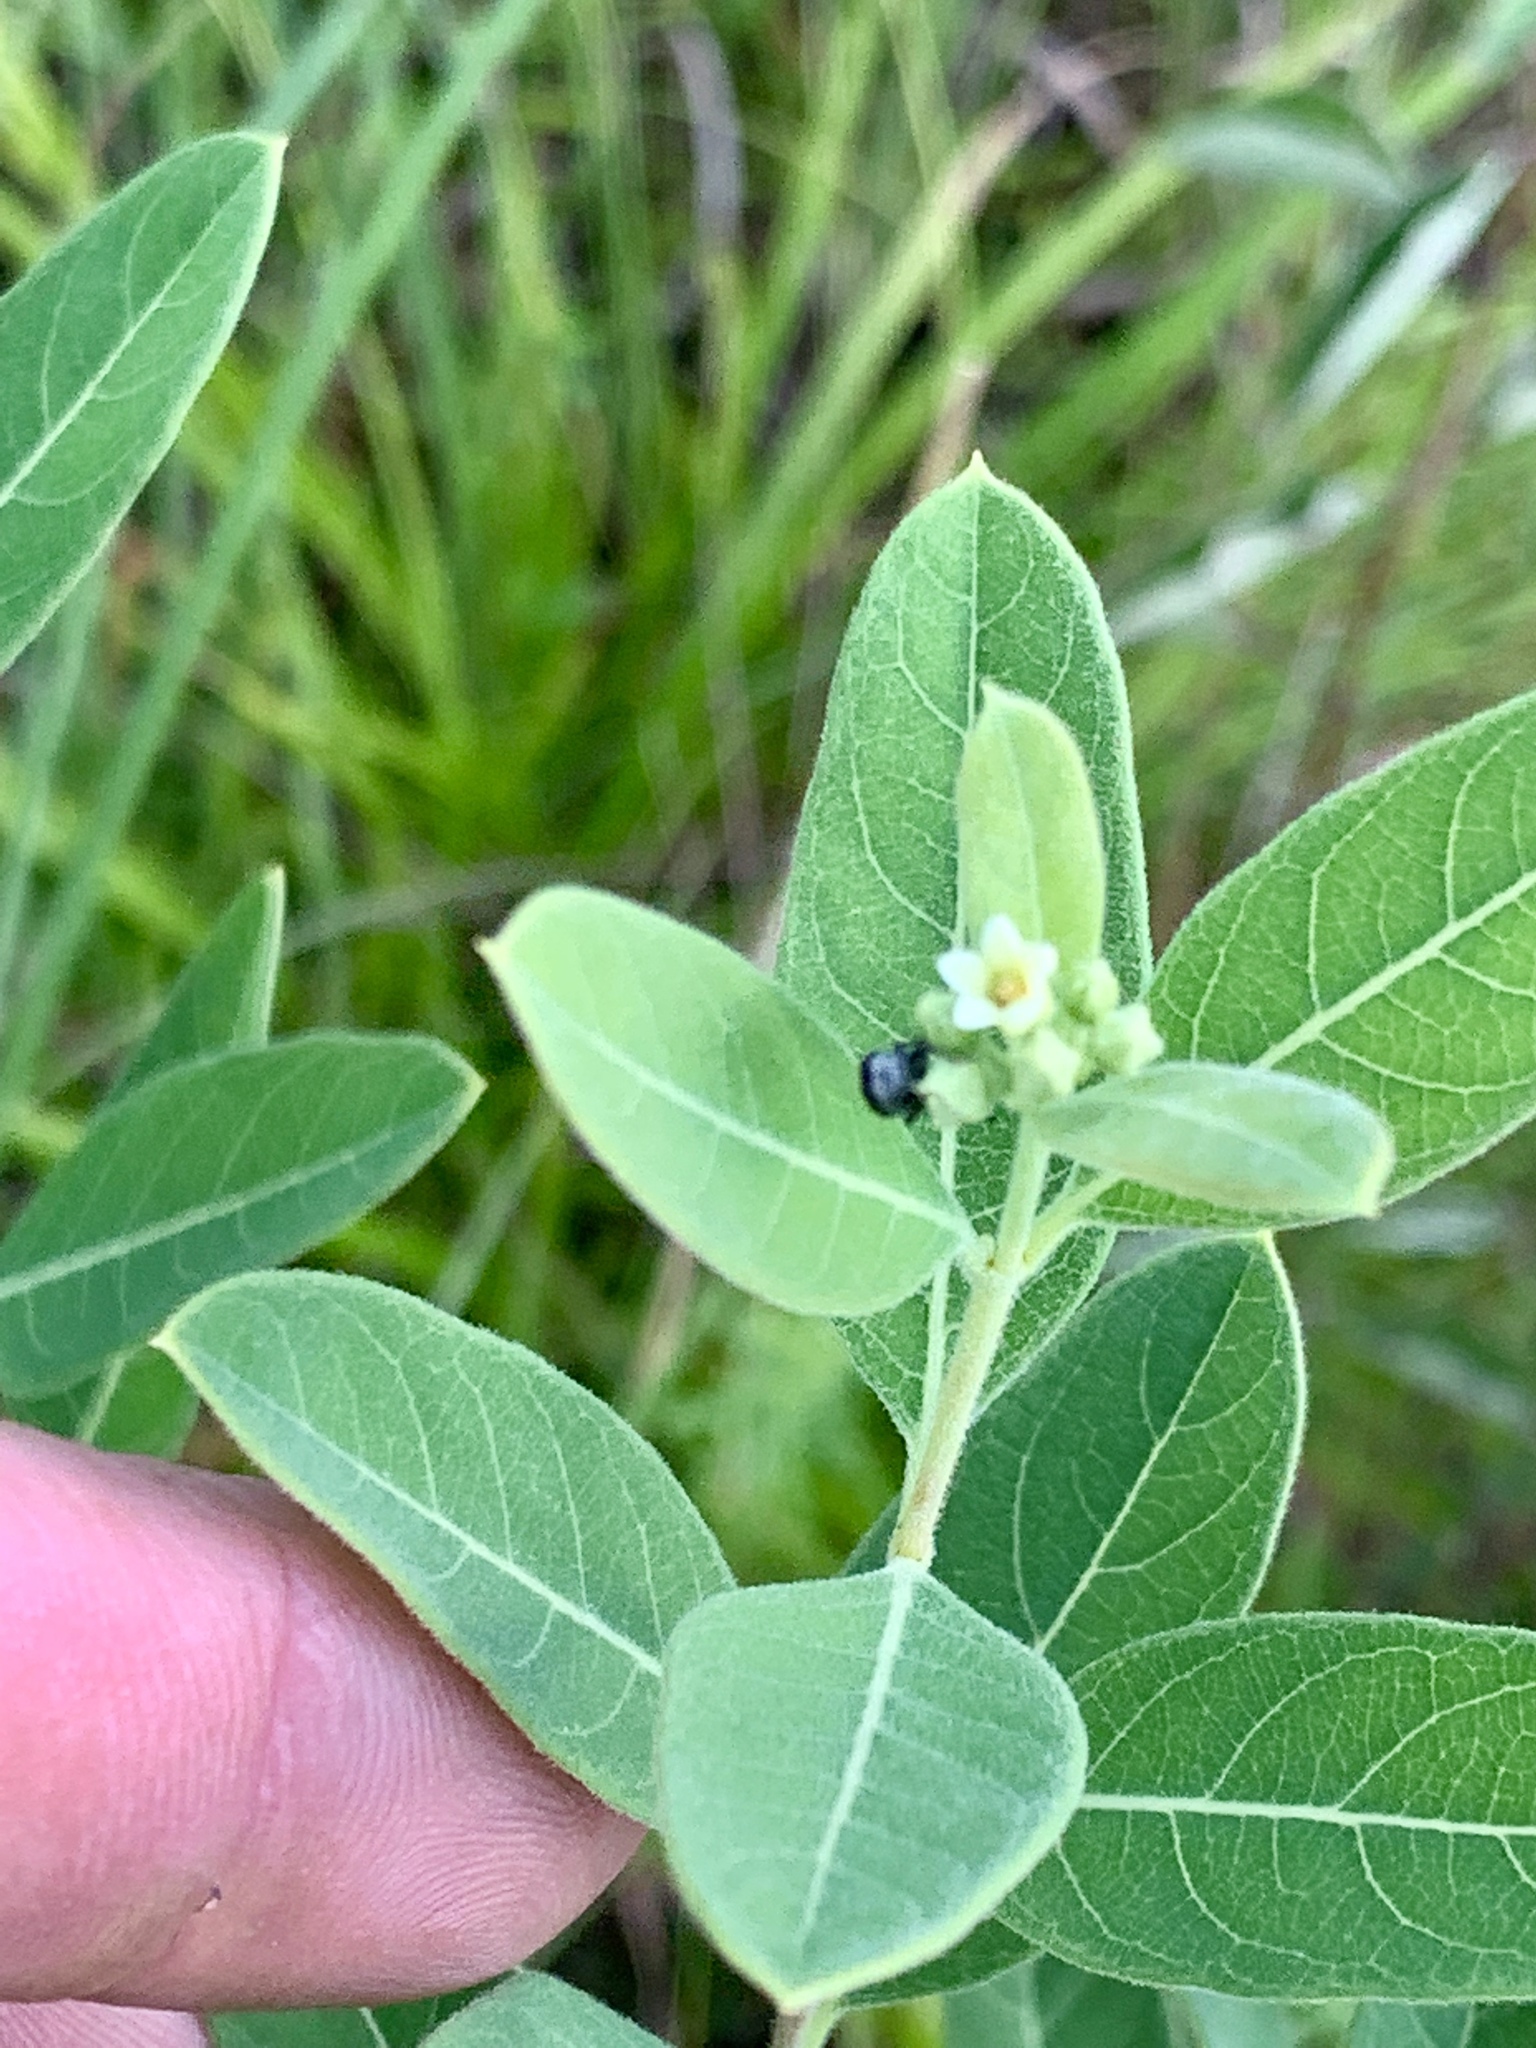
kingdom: Plantae
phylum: Tracheophyta
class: Magnoliopsida
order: Gentianales
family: Apocynaceae
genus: Apocynum
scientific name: Apocynum cannabinum
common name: Hemp dogbane
